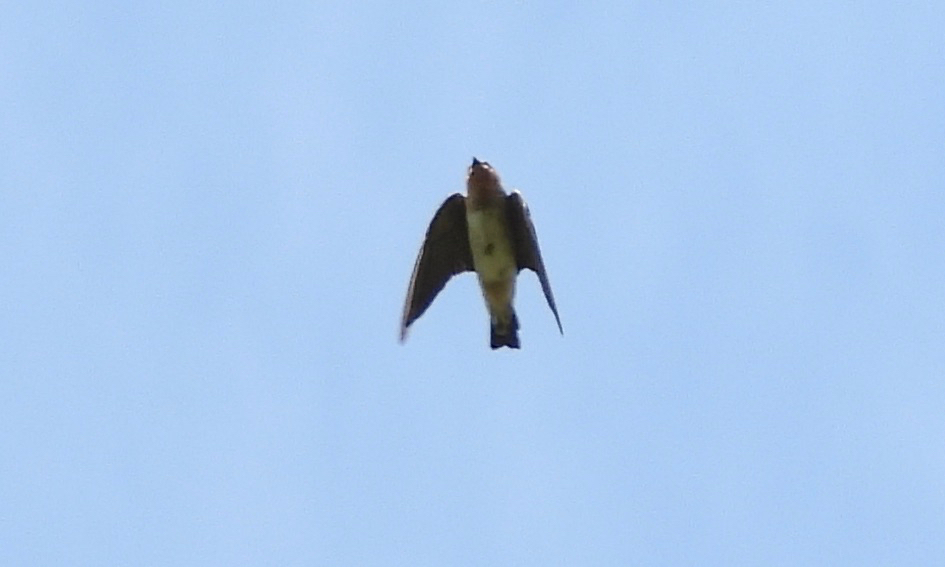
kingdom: Animalia
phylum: Chordata
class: Aves
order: Passeriformes
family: Hirundinidae
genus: Petrochelidon
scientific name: Petrochelidon pyrrhonota
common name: American cliff swallow
